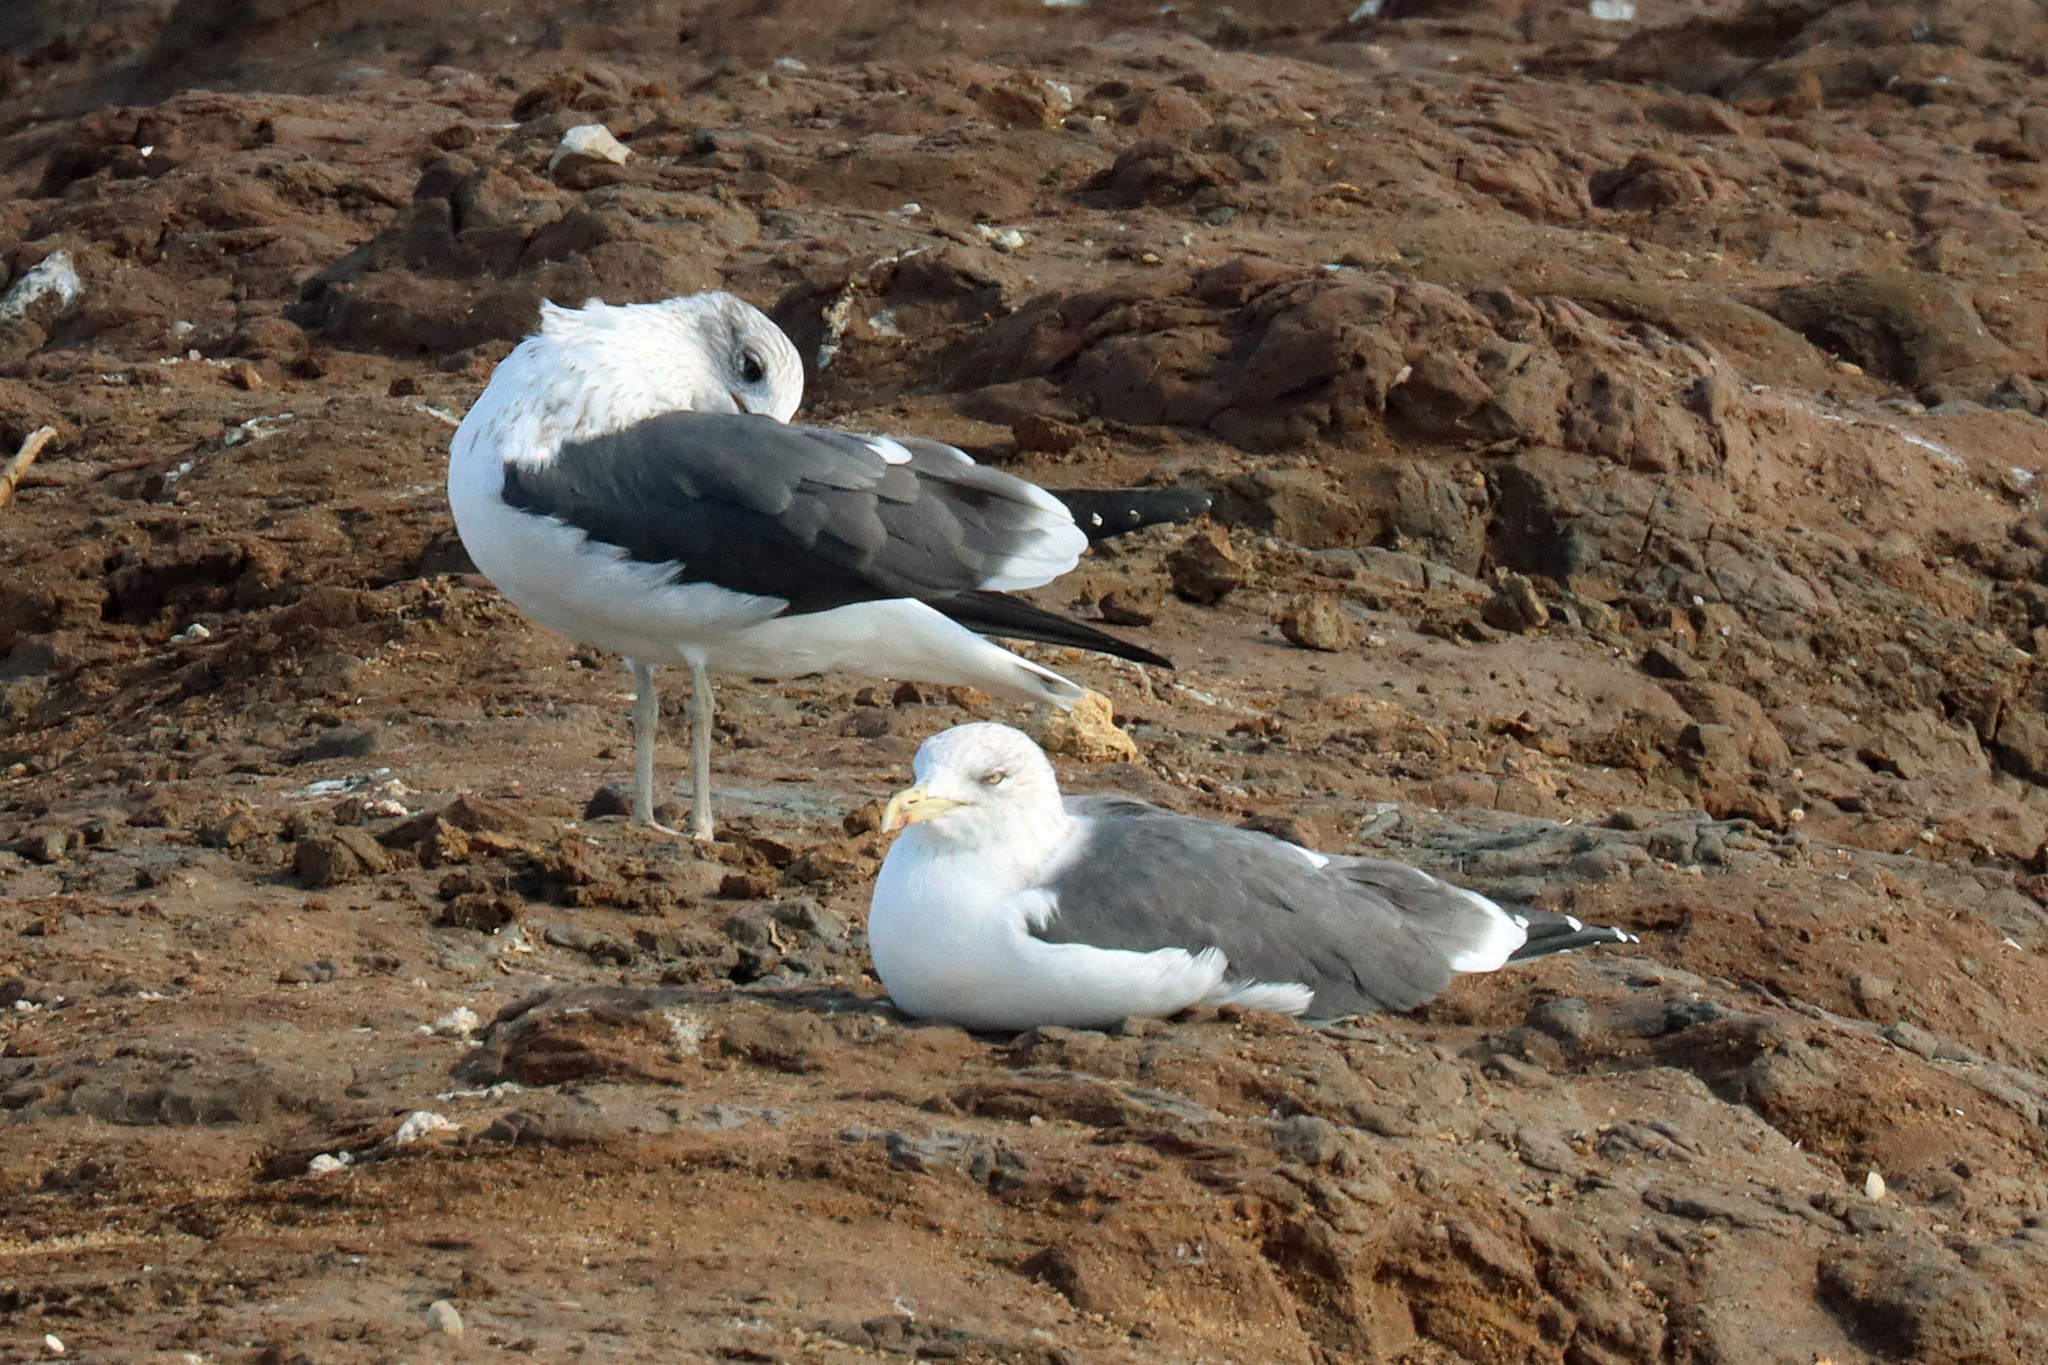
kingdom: Animalia
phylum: Chordata
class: Aves
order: Charadriiformes
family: Laridae
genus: Larus
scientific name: Larus fuscus
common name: Lesser black-backed gull
